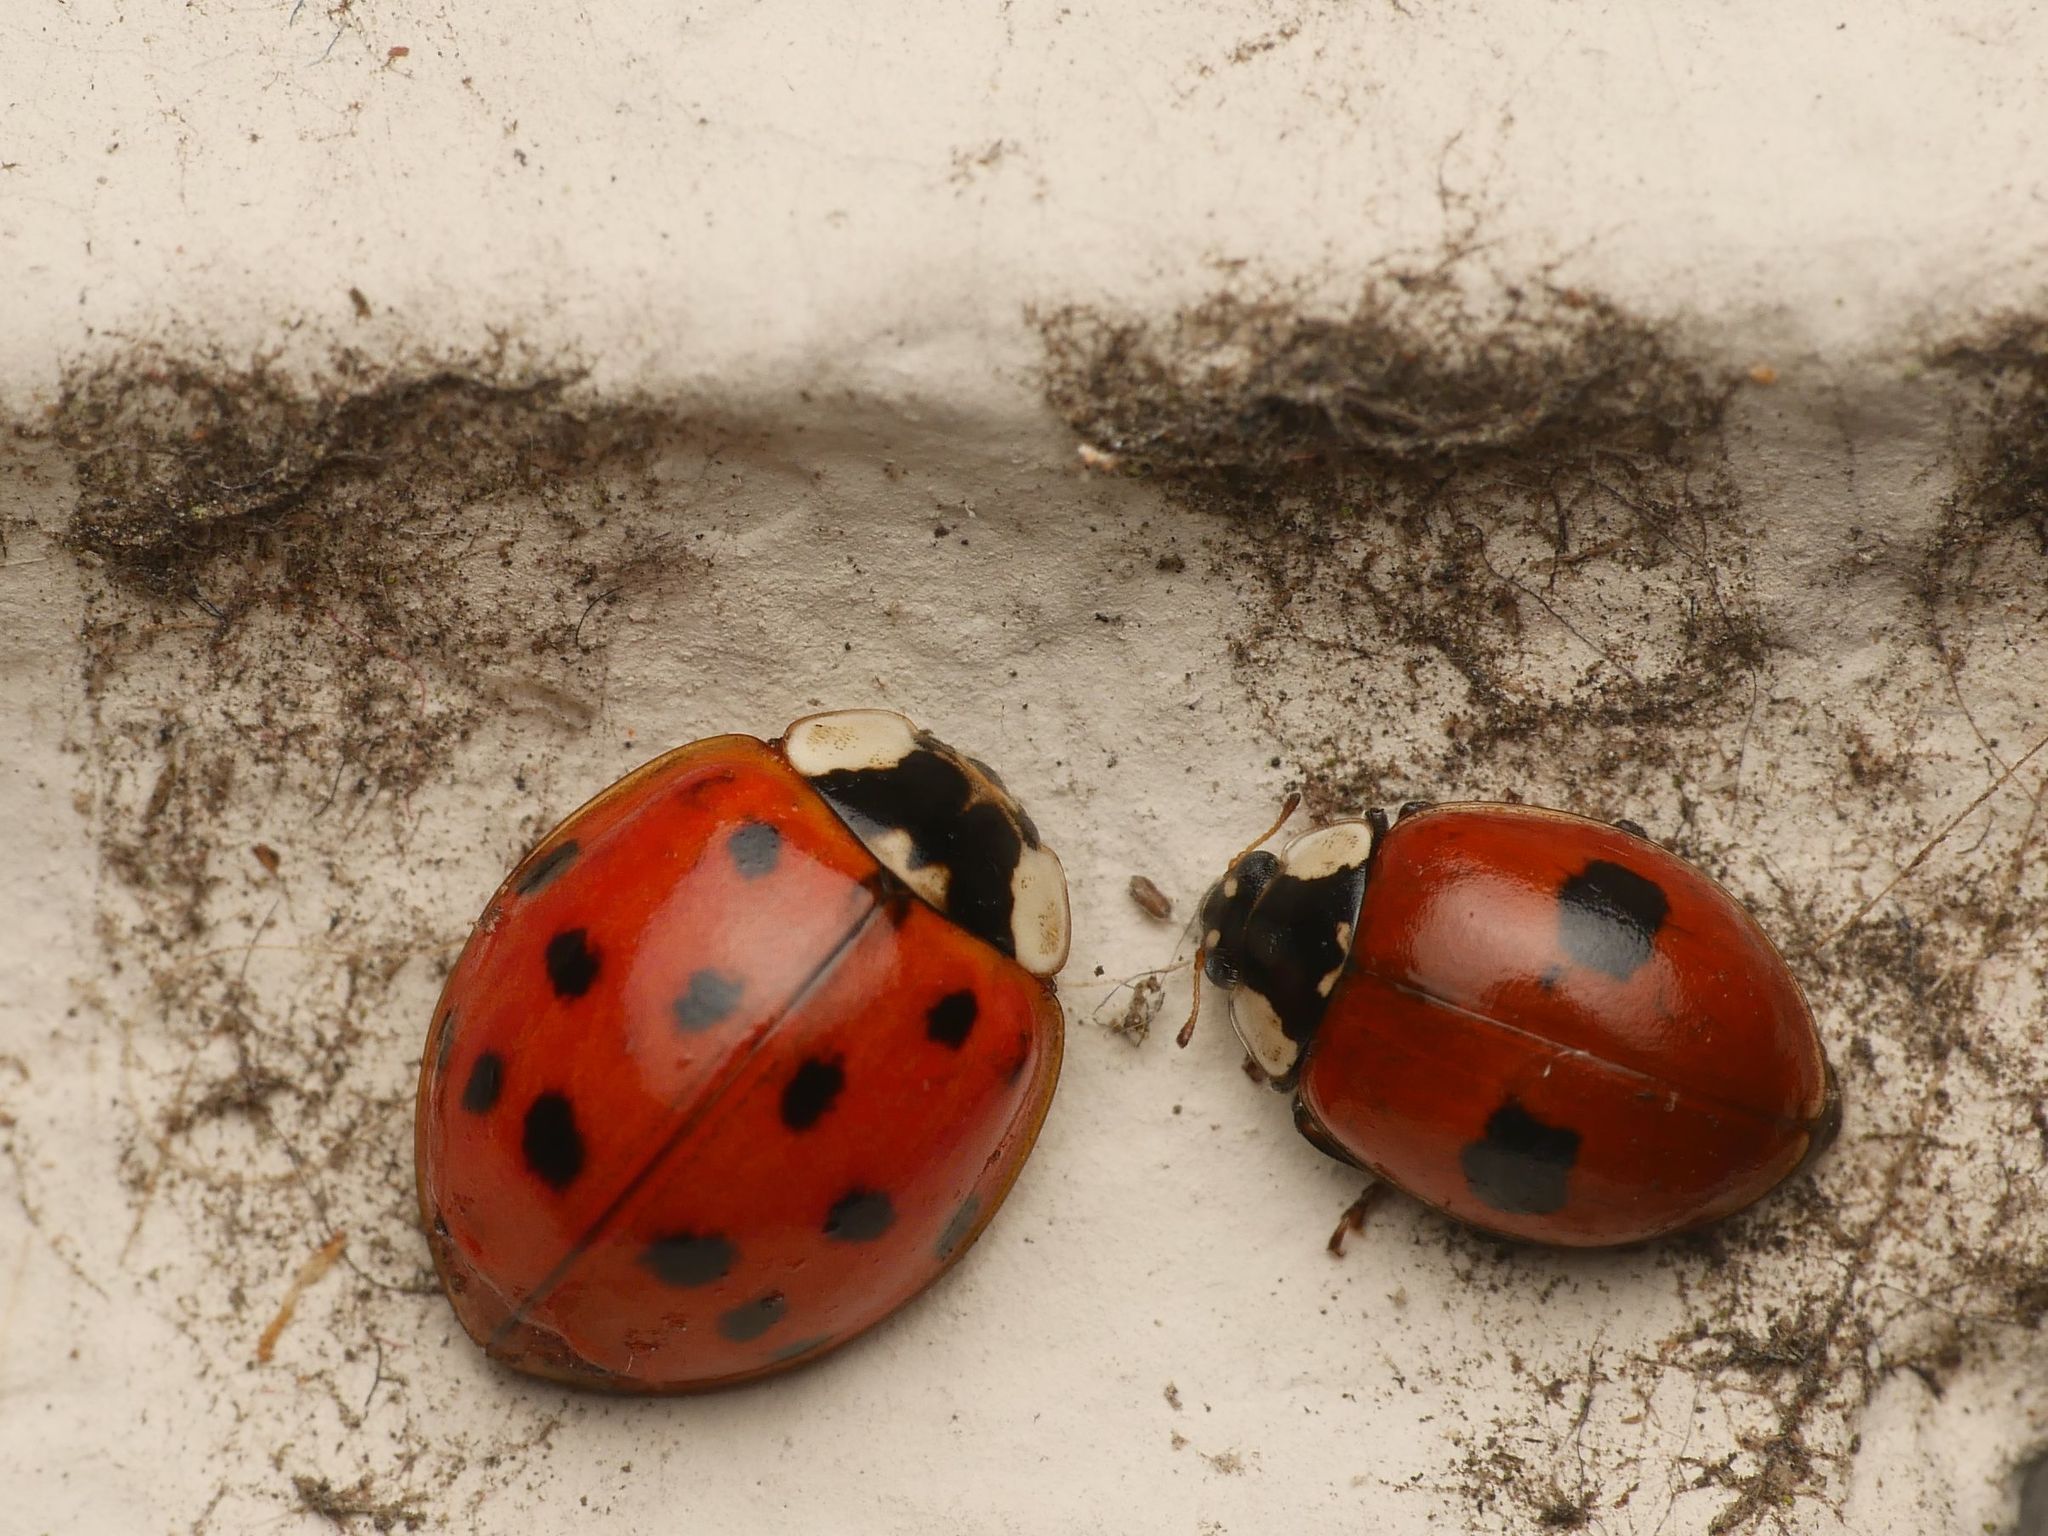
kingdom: Animalia
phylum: Arthropoda
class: Insecta
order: Coleoptera
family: Coccinellidae
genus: Harmonia
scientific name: Harmonia axyridis
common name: Harlequin ladybird
